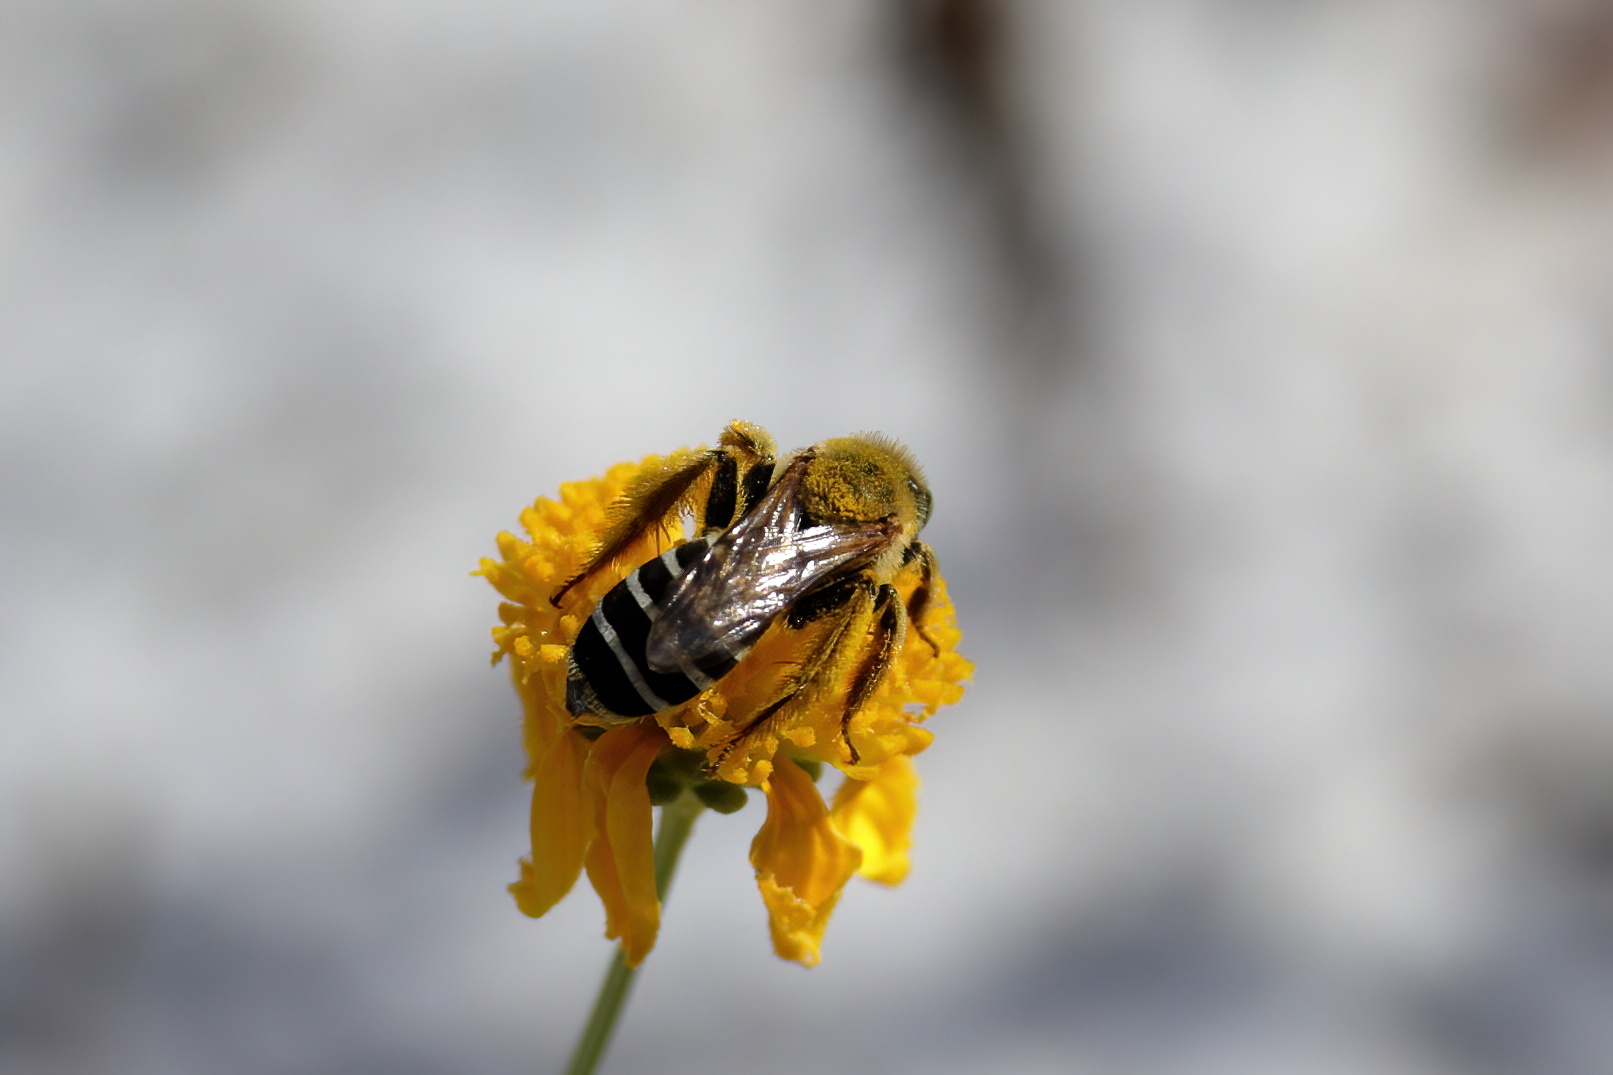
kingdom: Animalia
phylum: Arthropoda
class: Insecta
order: Hymenoptera
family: Melittidae
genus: Hesperapis
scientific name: Hesperapis oraria
